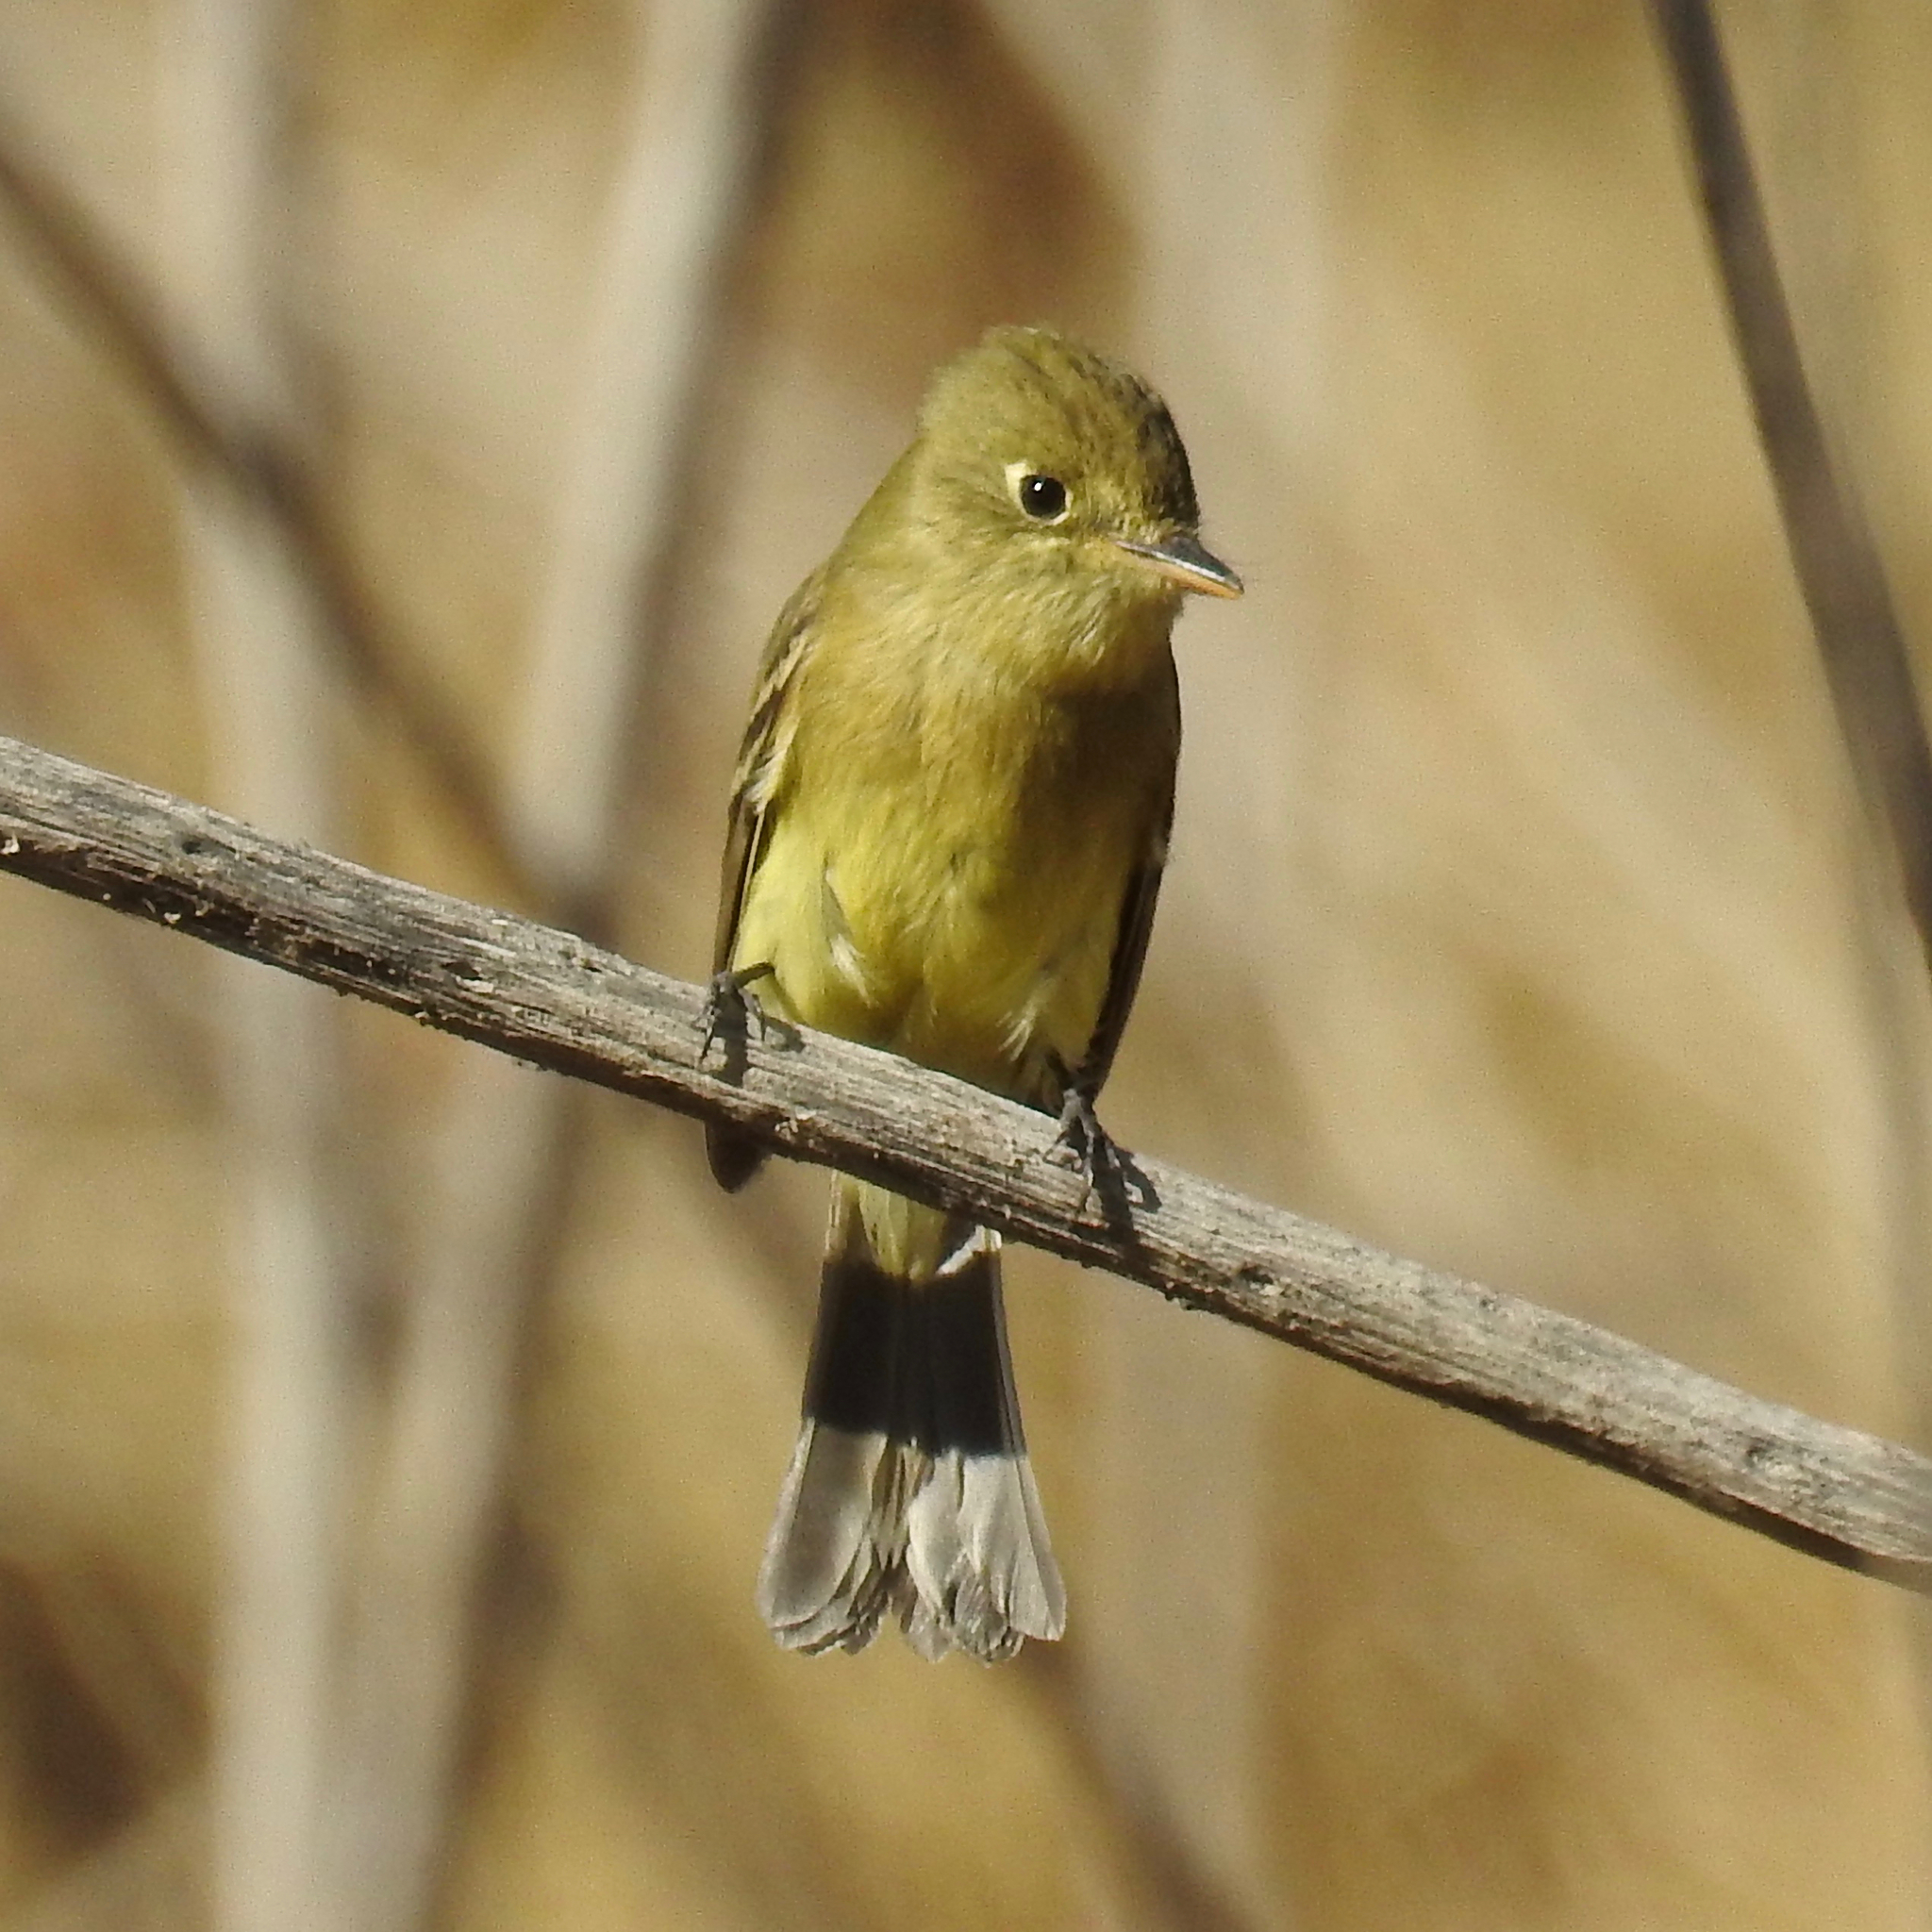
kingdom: Animalia
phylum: Chordata
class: Aves
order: Passeriformes
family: Tyrannidae
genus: Empidonax
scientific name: Empidonax difficilis
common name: Pacific-slope flycatcher
